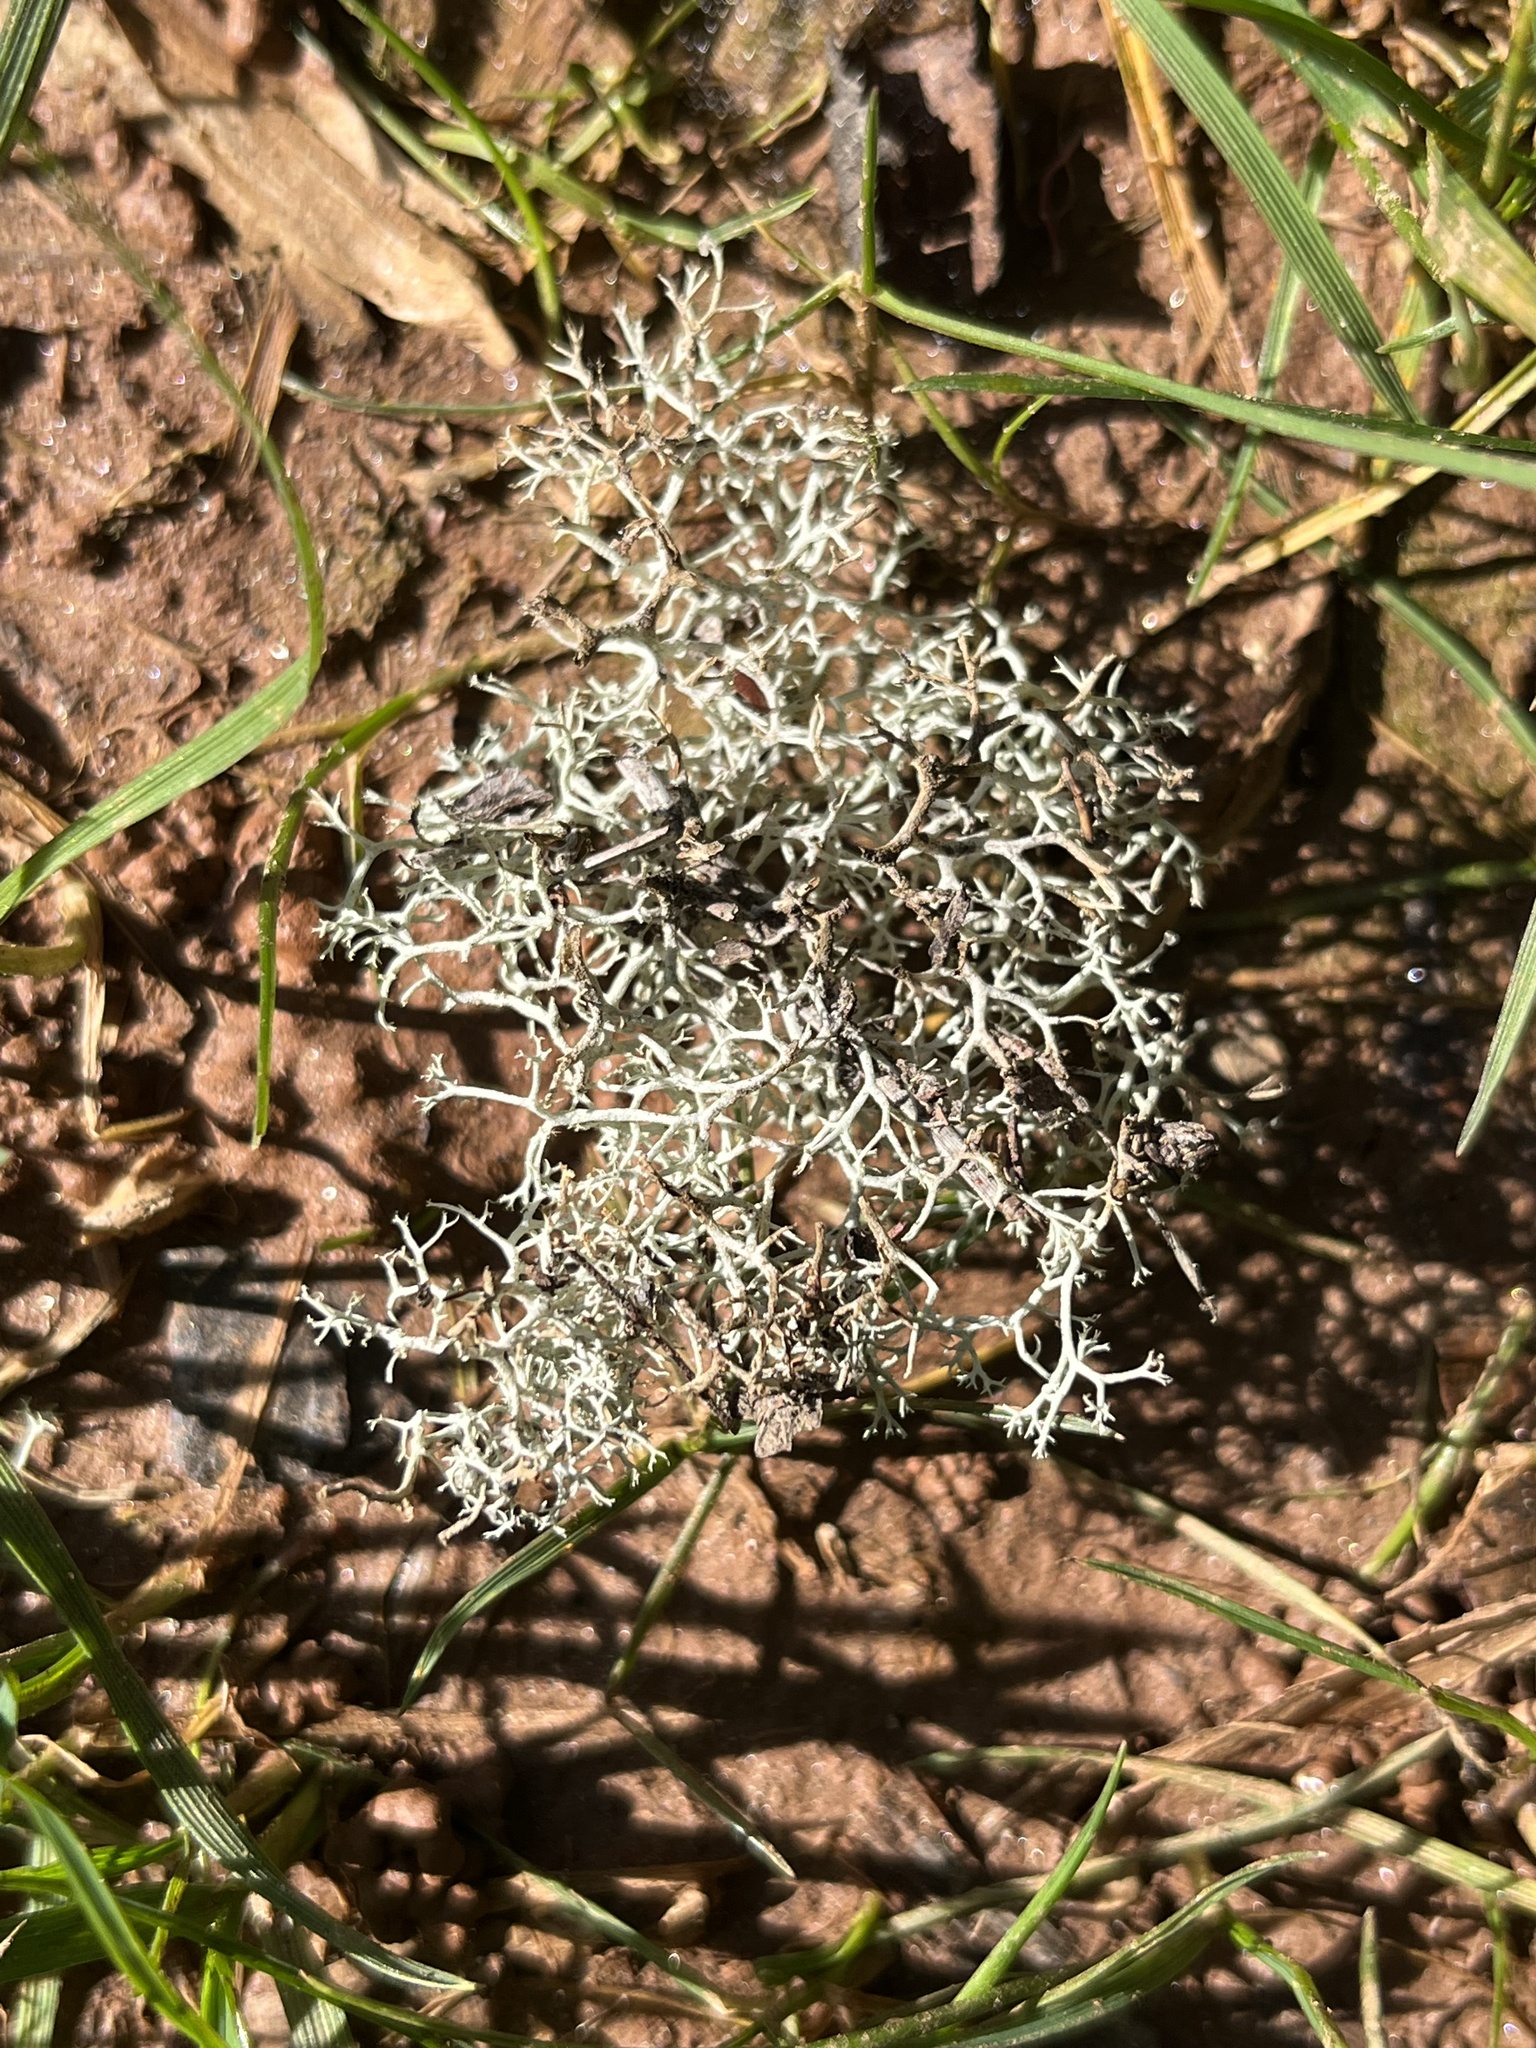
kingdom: Fungi
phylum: Ascomycota
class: Lecanoromycetes
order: Lecanorales
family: Cladoniaceae
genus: Cladonia
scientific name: Cladonia subtenuis
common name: Dixie reindeer lichen
